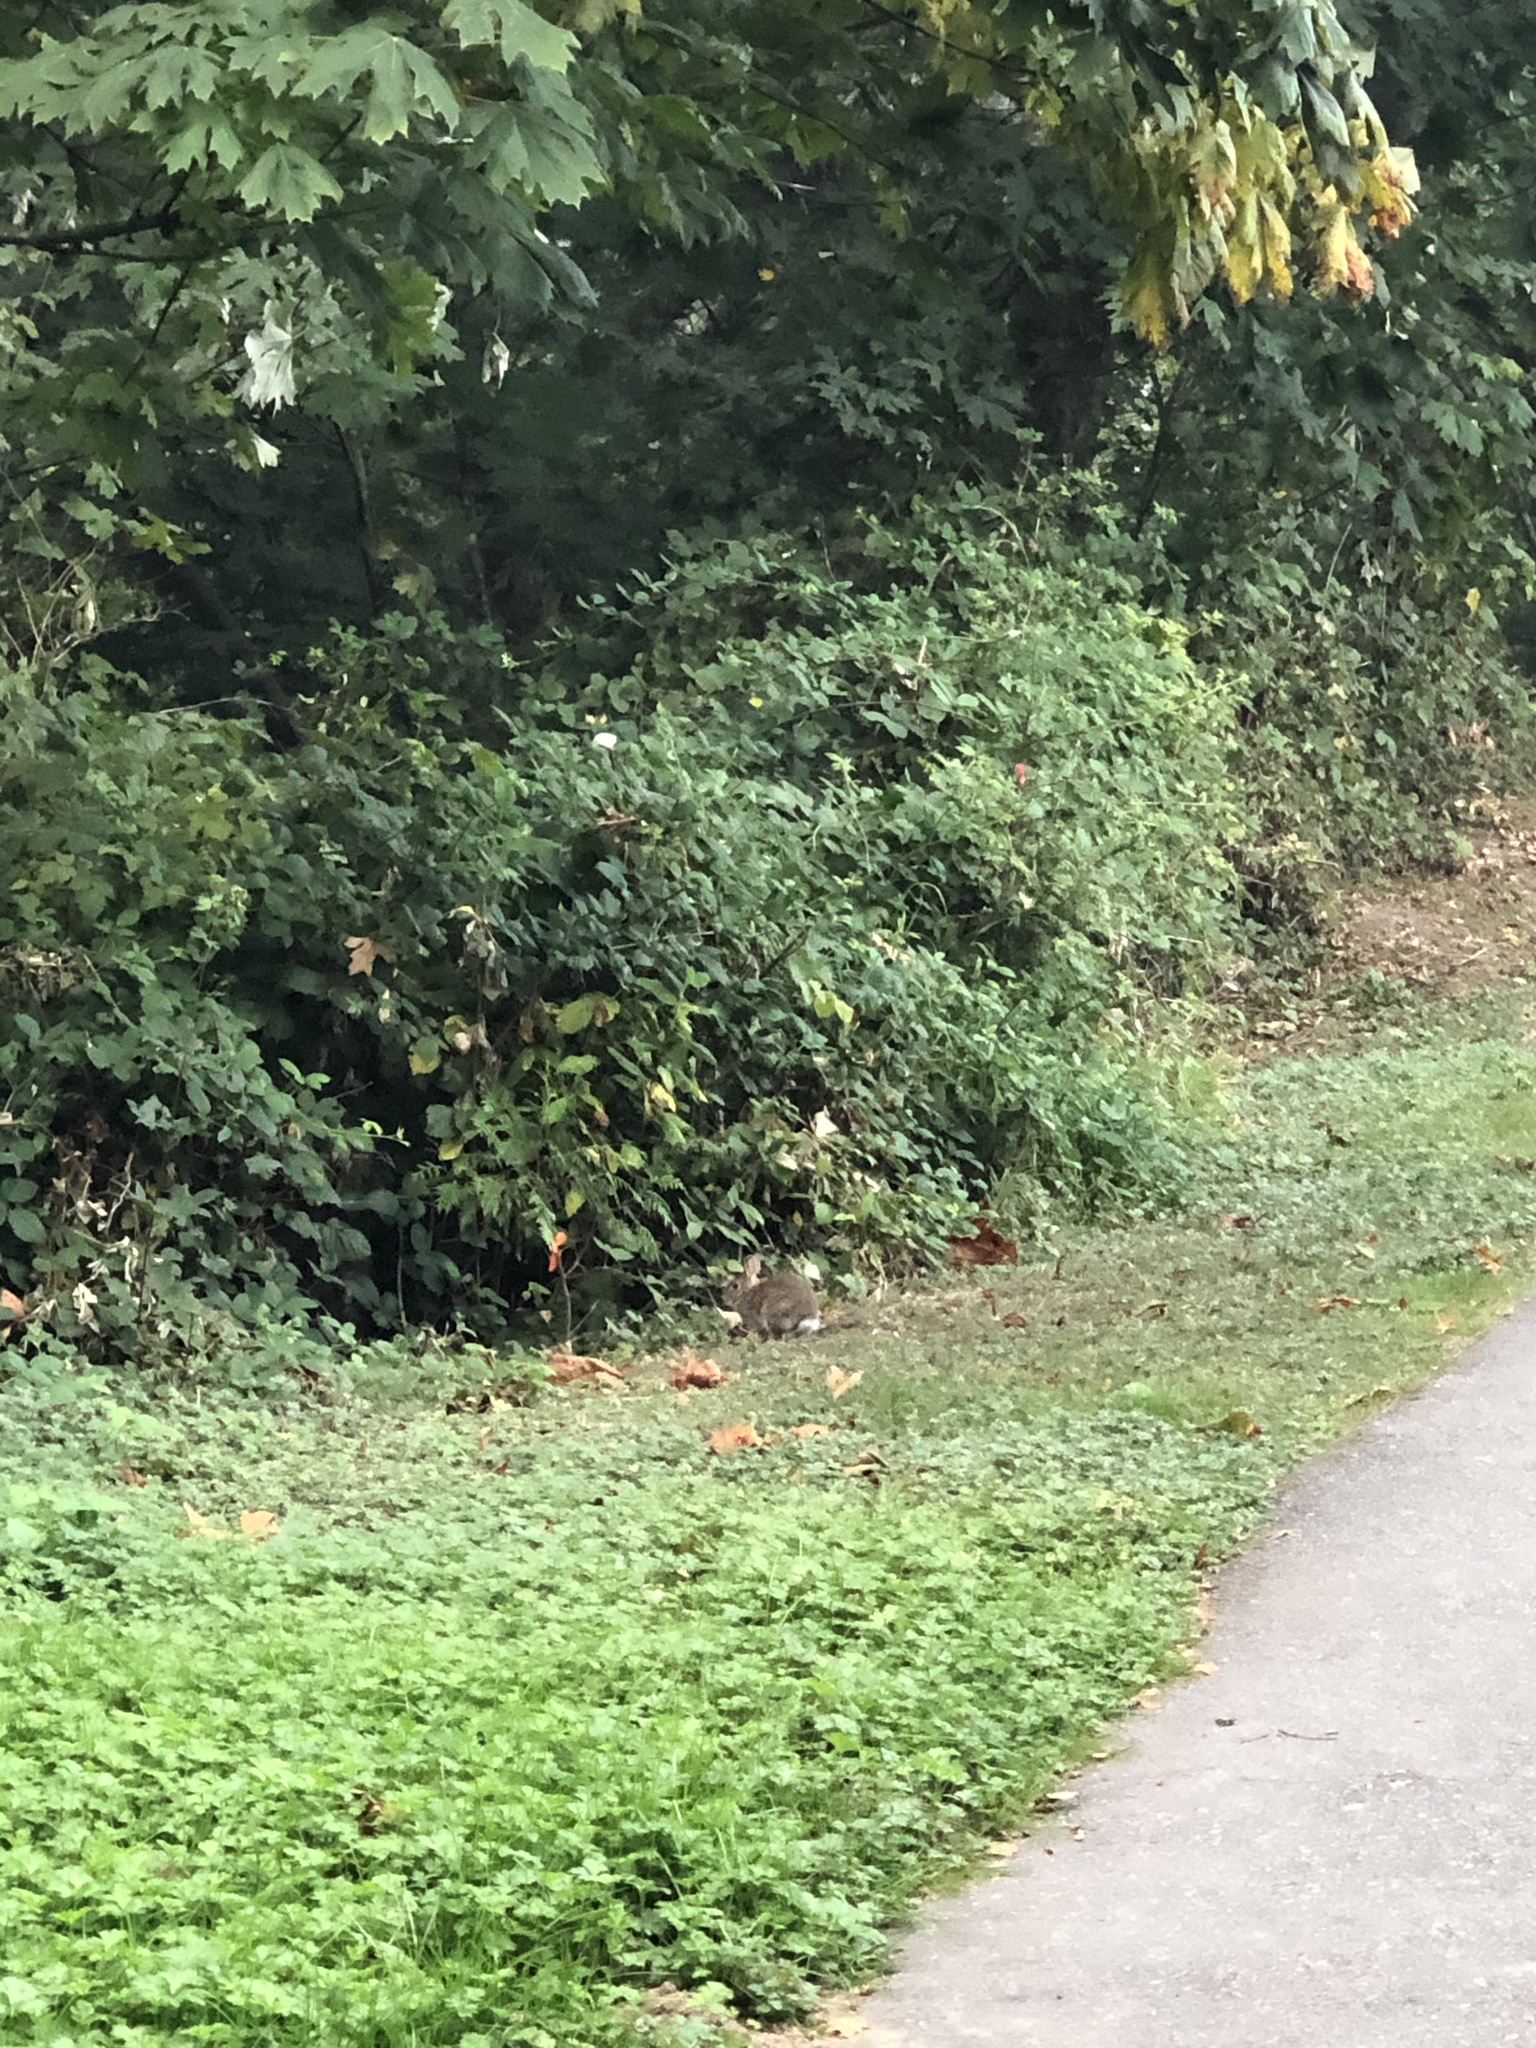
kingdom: Animalia
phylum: Chordata
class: Mammalia
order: Lagomorpha
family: Leporidae
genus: Sylvilagus
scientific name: Sylvilagus floridanus
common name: Eastern cottontail
